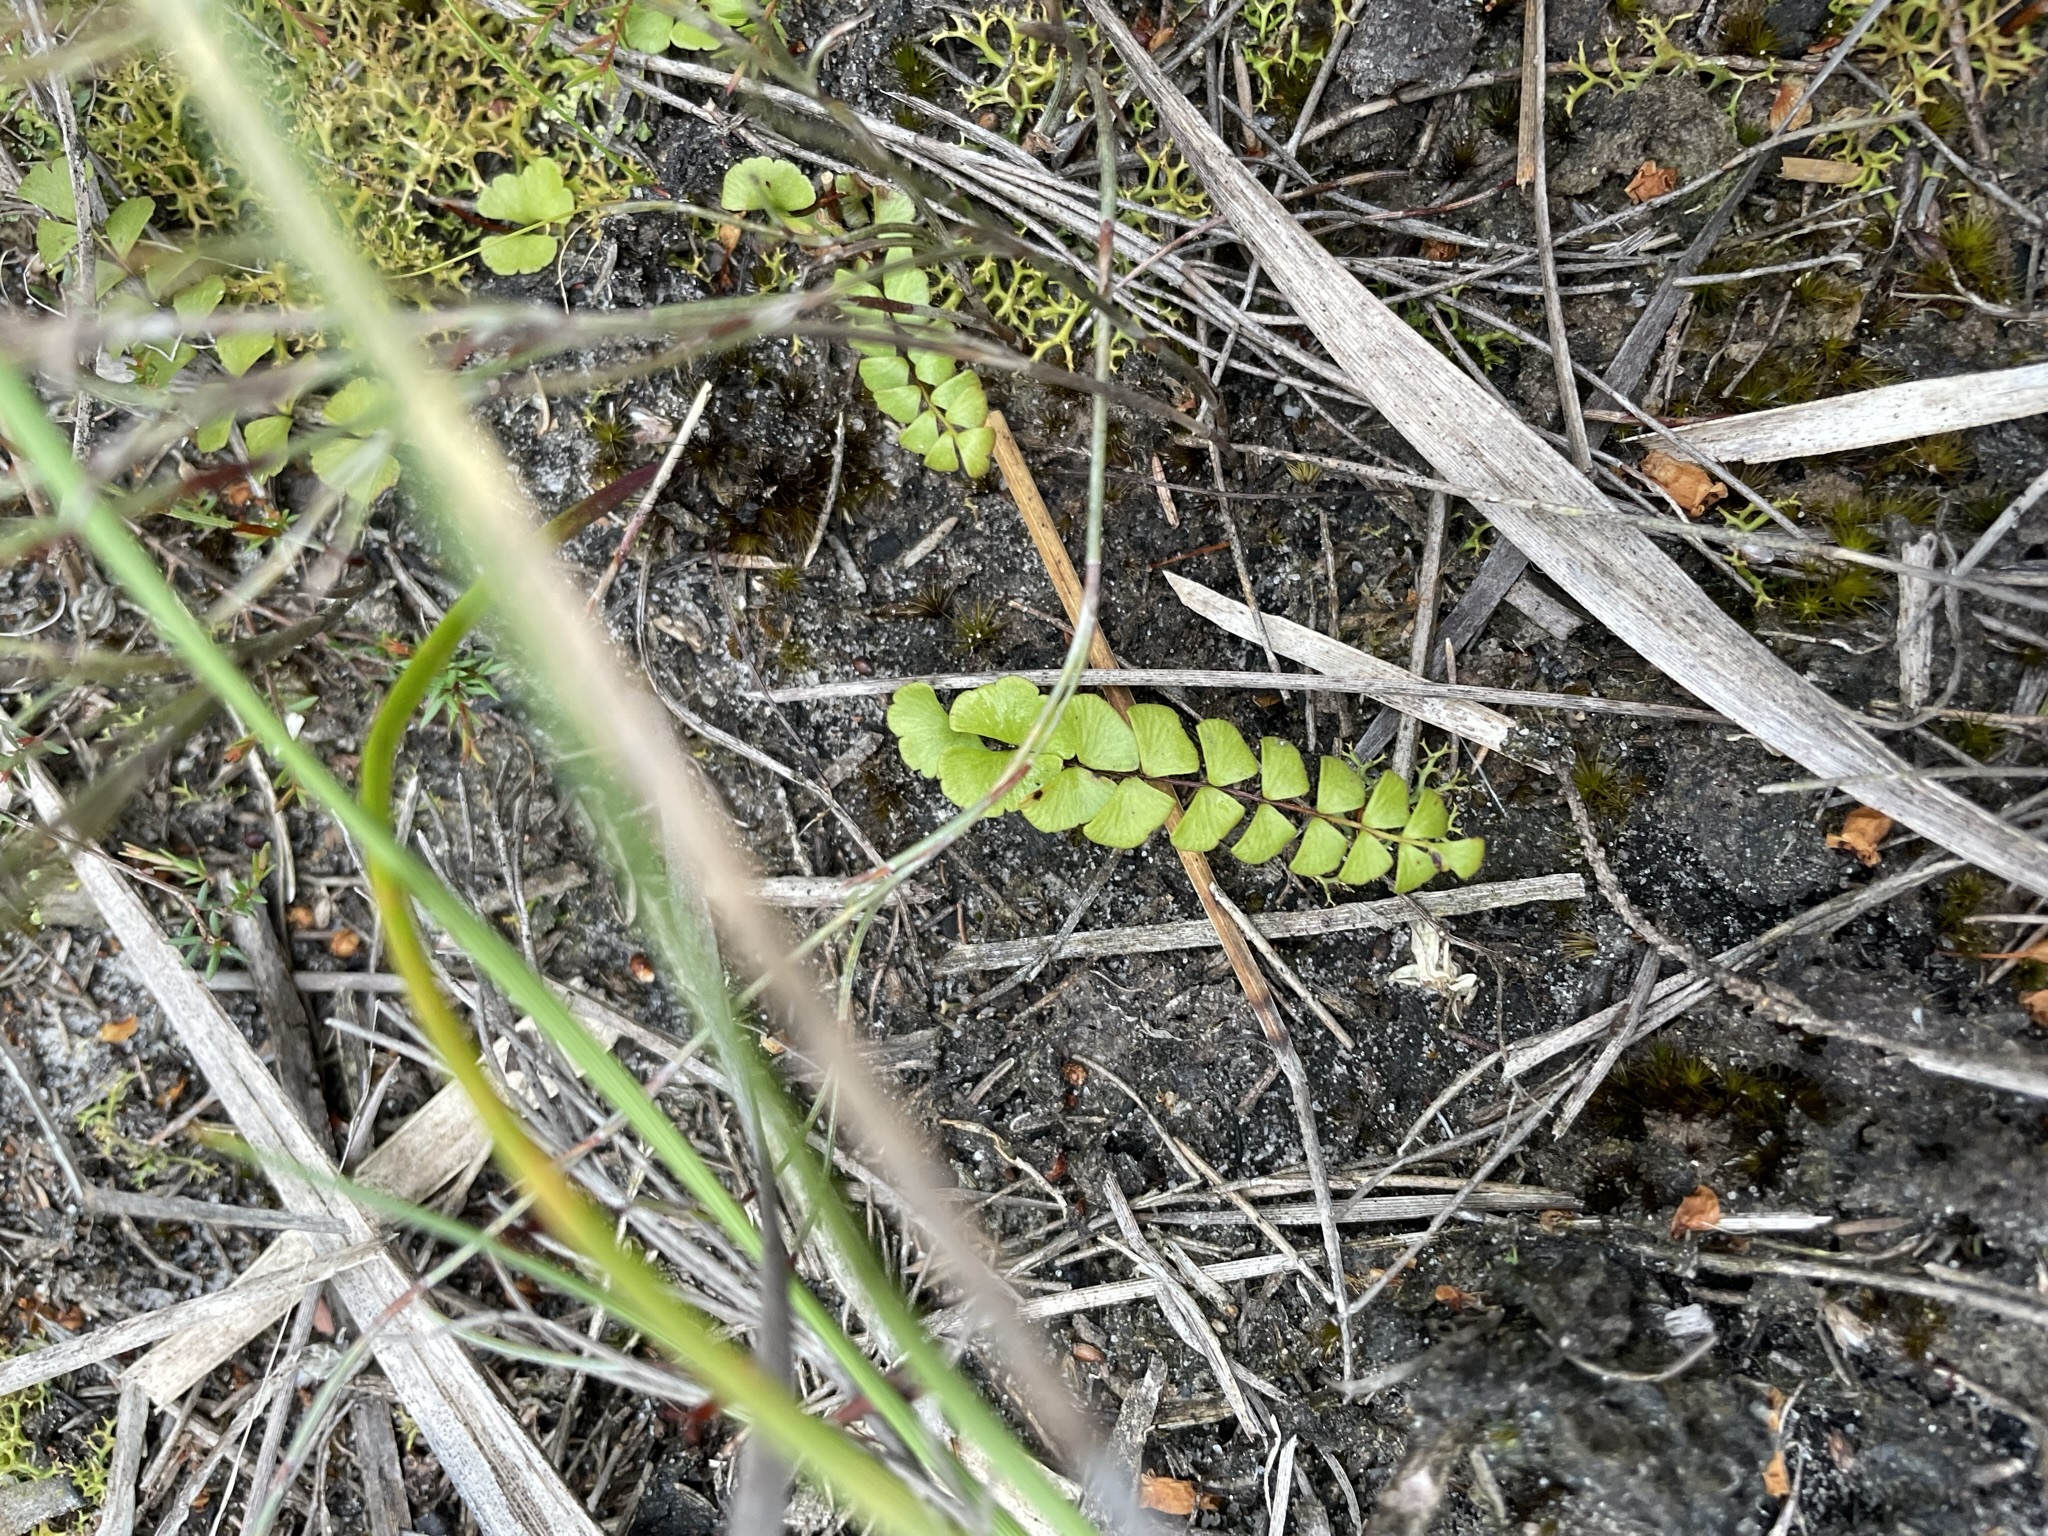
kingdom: Plantae
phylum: Tracheophyta
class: Polypodiopsida
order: Polypodiales
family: Lindsaeaceae
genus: Lindsaea
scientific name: Lindsaea linearis
